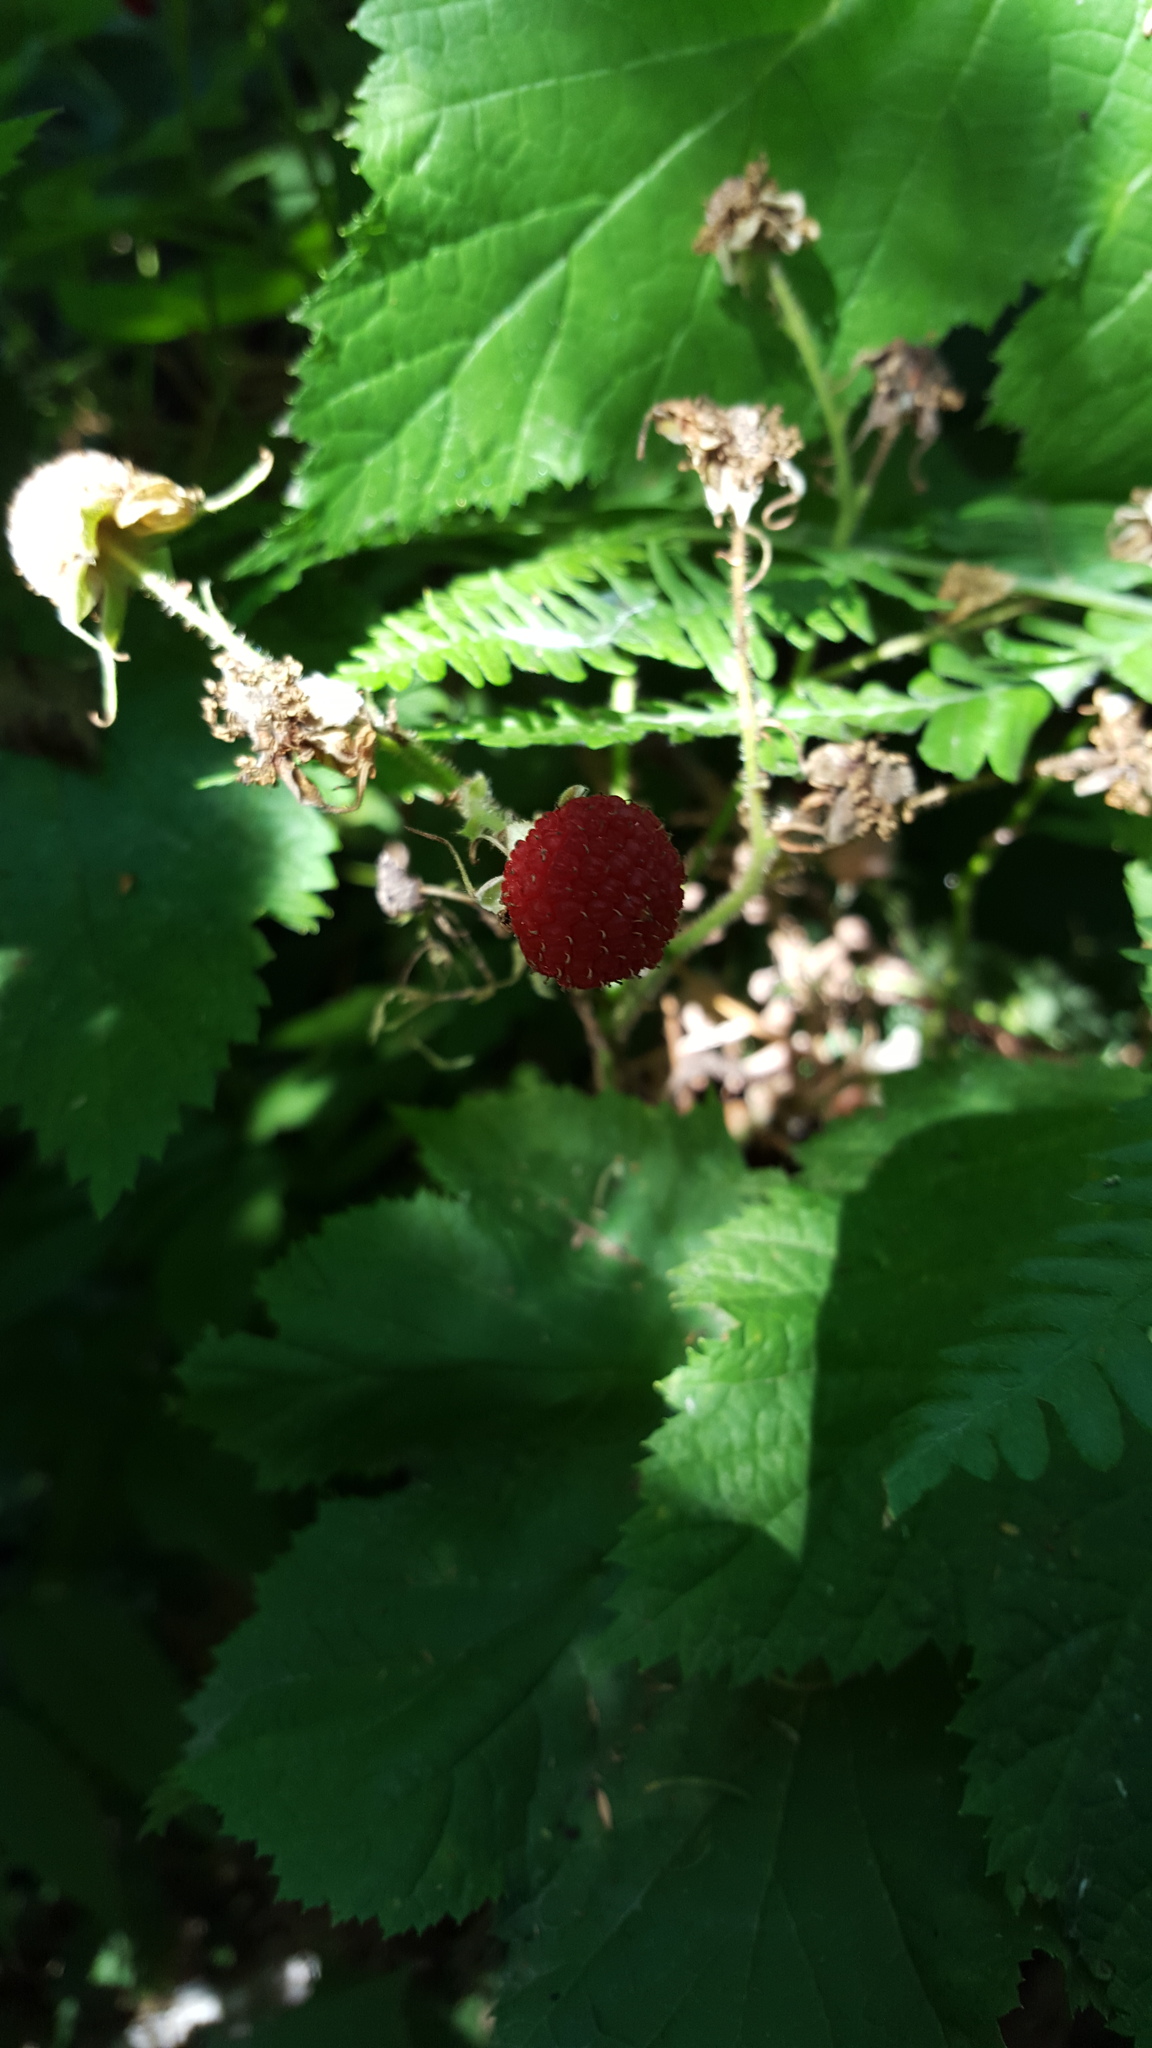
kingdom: Plantae
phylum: Tracheophyta
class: Magnoliopsida
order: Rosales
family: Rosaceae
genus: Rubus
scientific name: Rubus parviflorus
